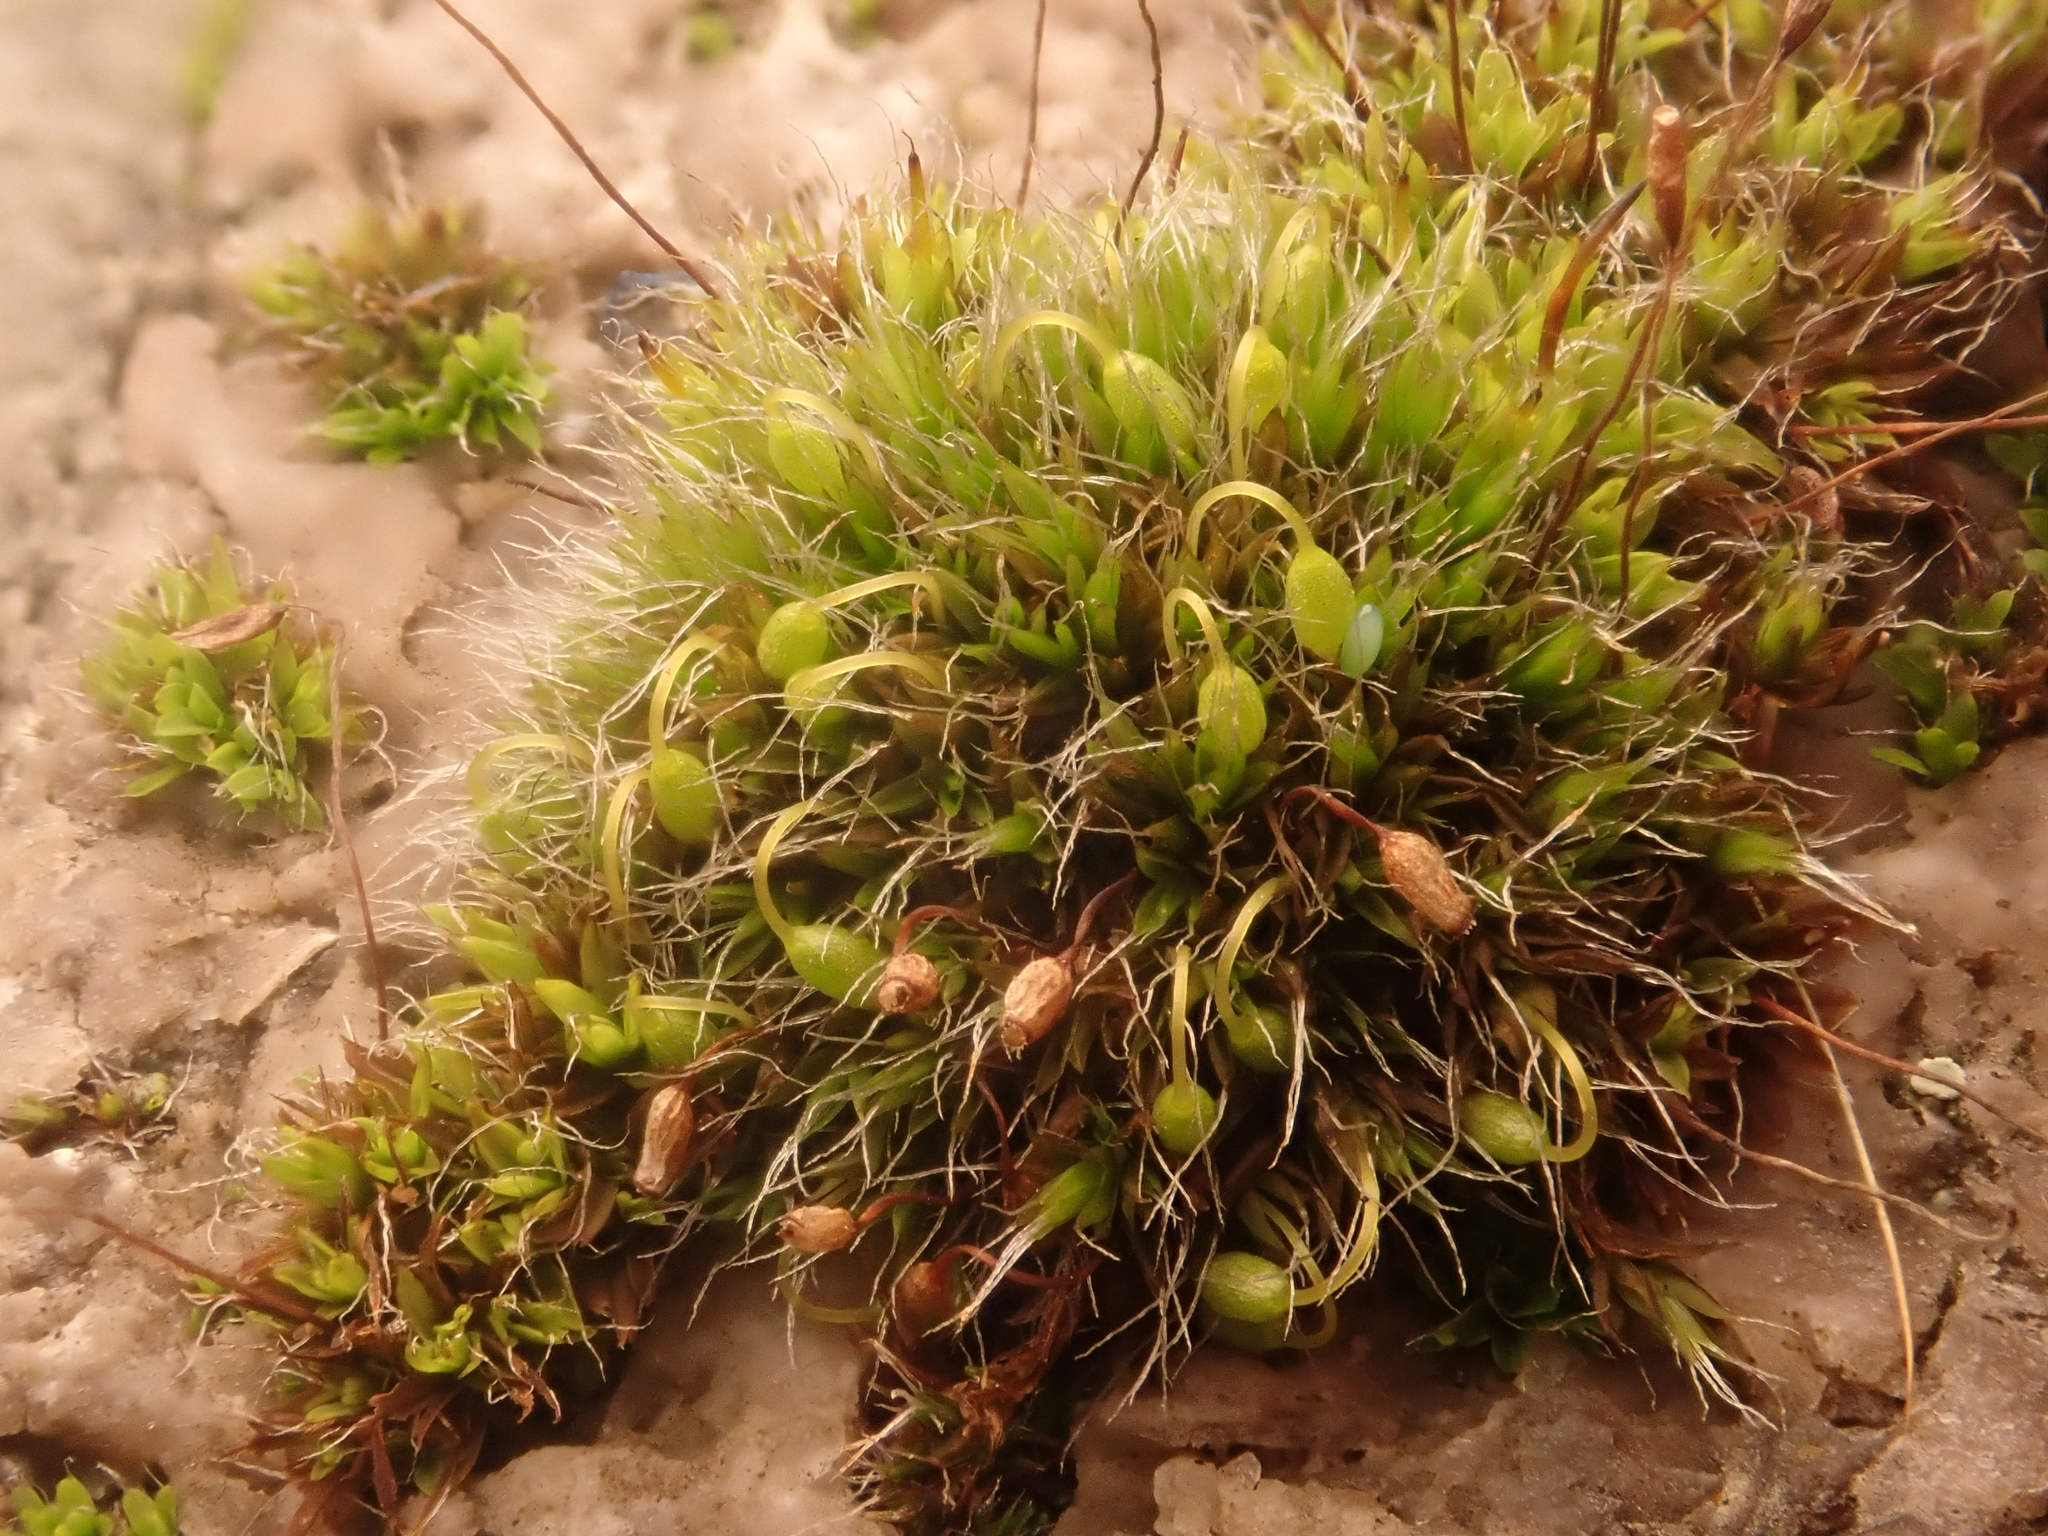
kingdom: Plantae
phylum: Bryophyta
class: Bryopsida
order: Grimmiales
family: Grimmiaceae
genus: Grimmia
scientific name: Grimmia pulvinata
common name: Grey-cushioned grimmia
